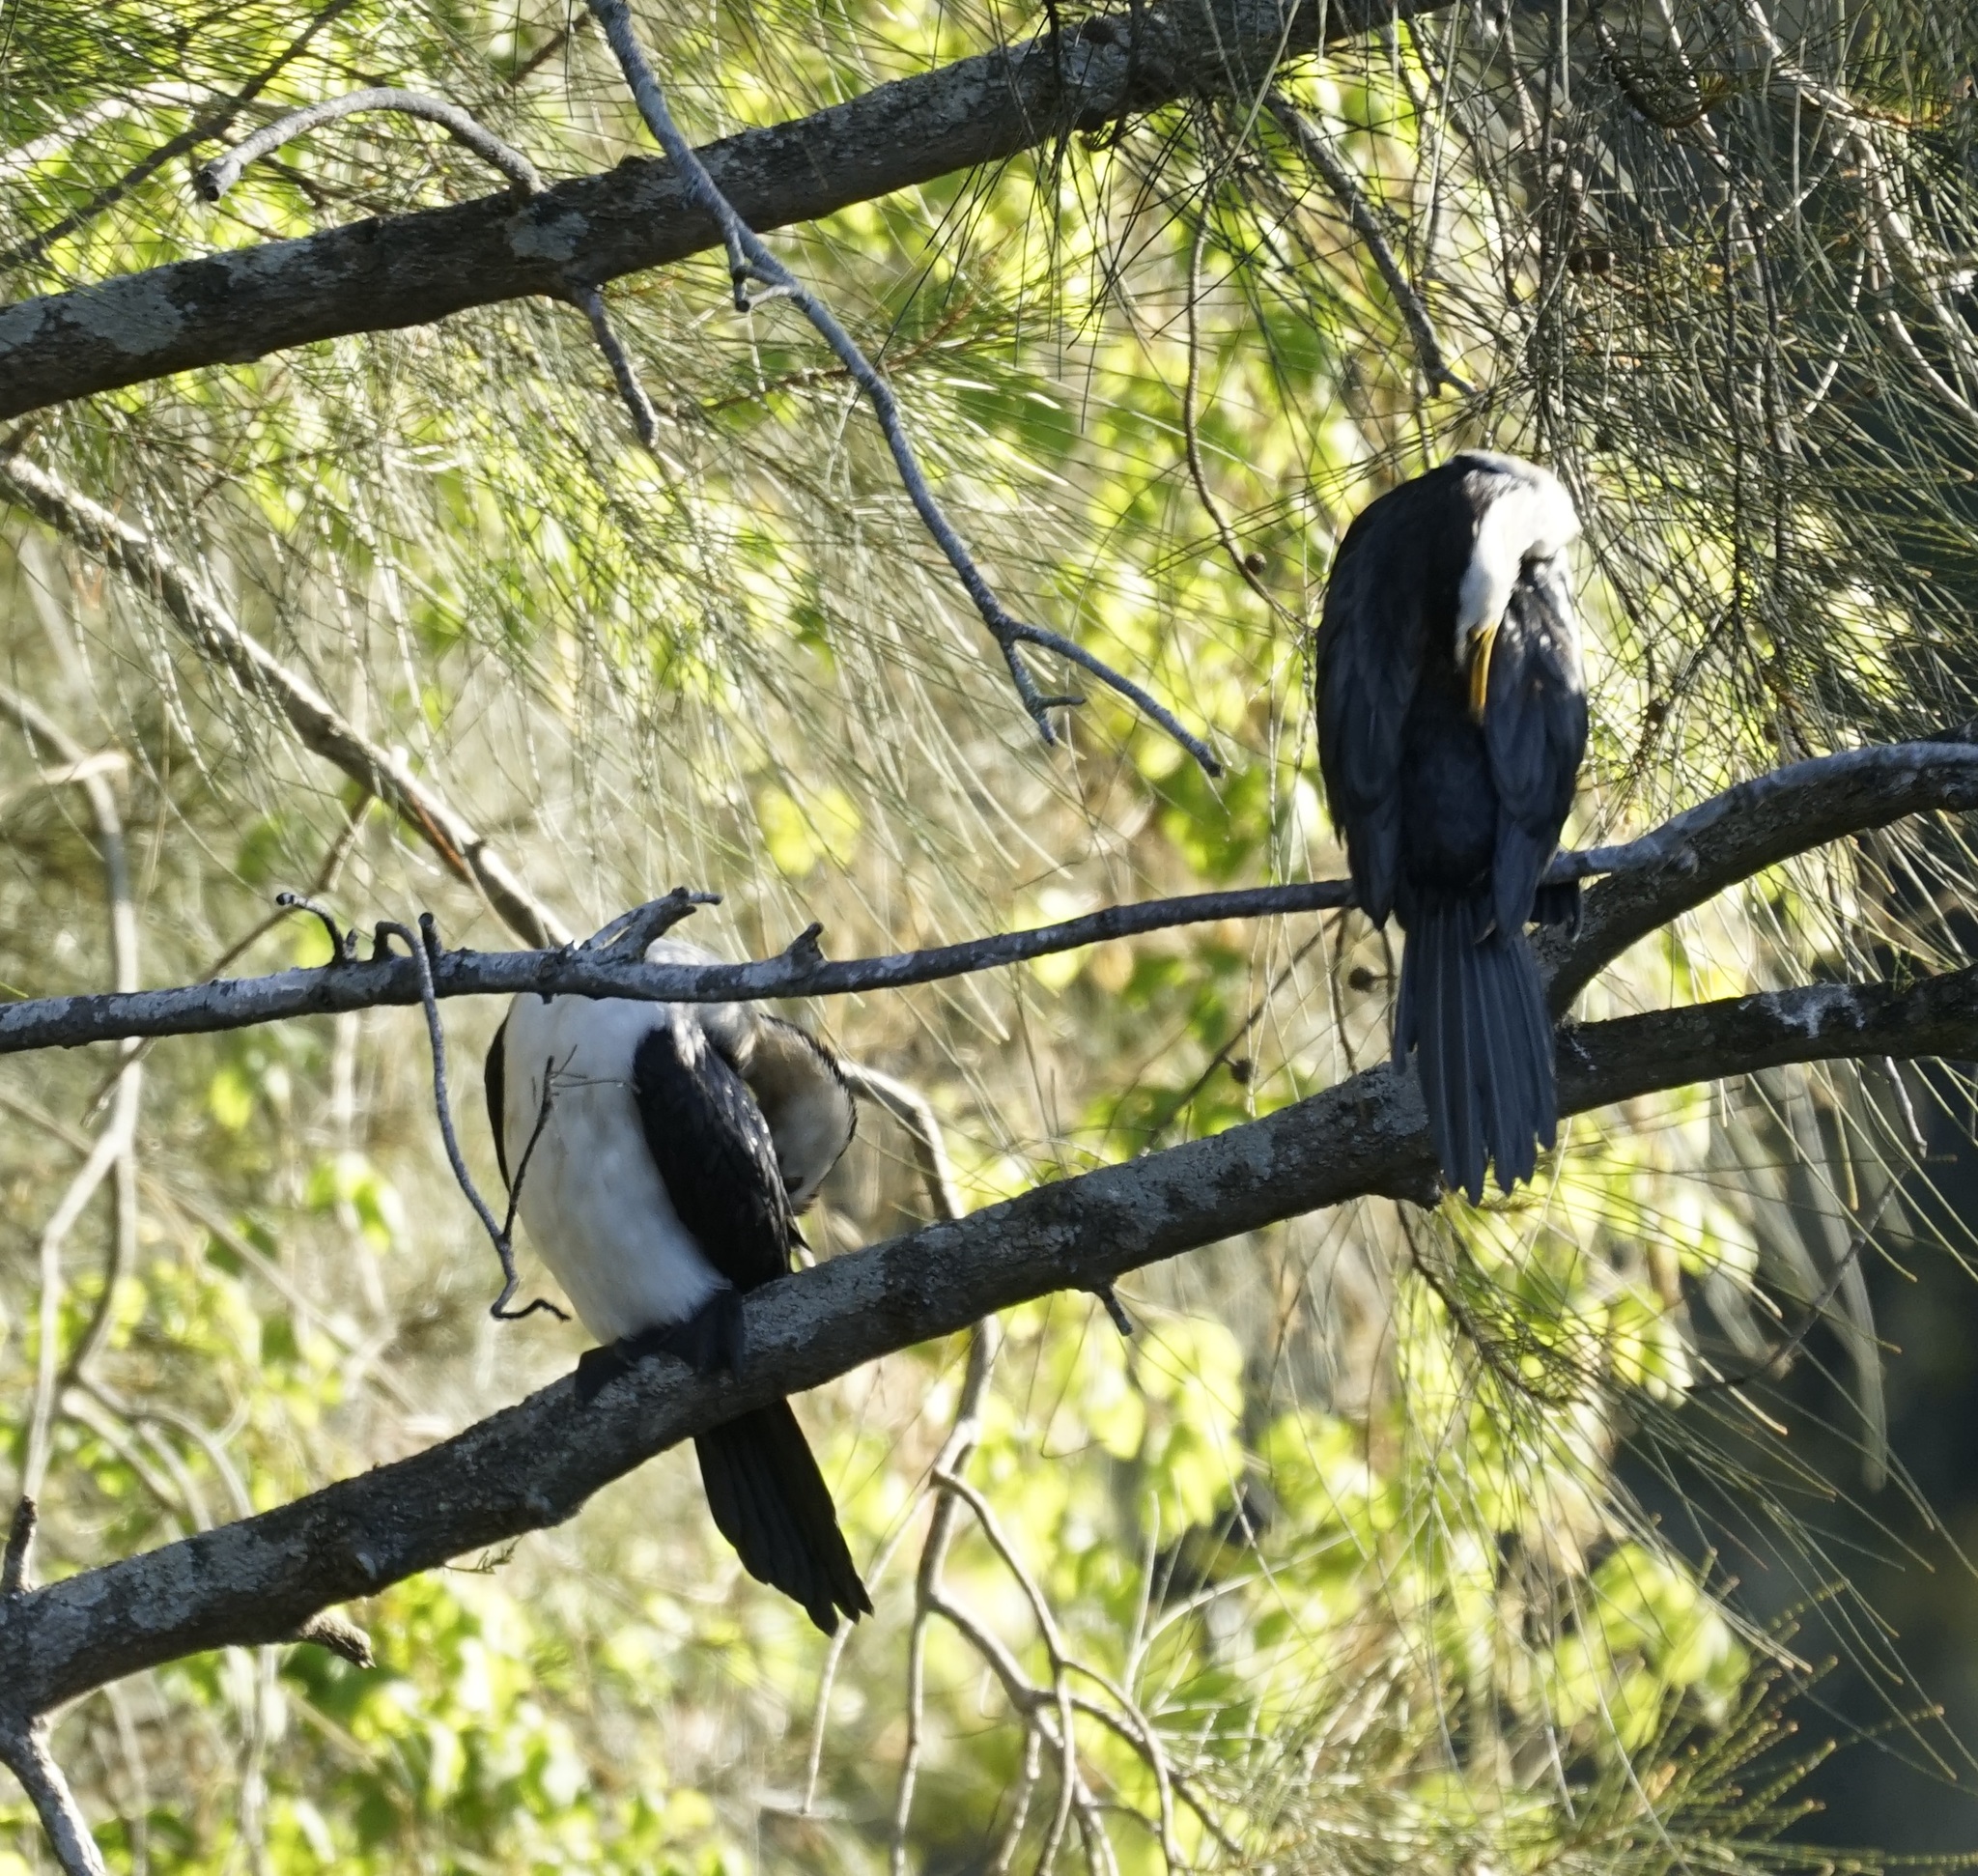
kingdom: Animalia
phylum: Chordata
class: Aves
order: Suliformes
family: Phalacrocoracidae
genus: Microcarbo
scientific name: Microcarbo melanoleucos
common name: Little pied cormorant
